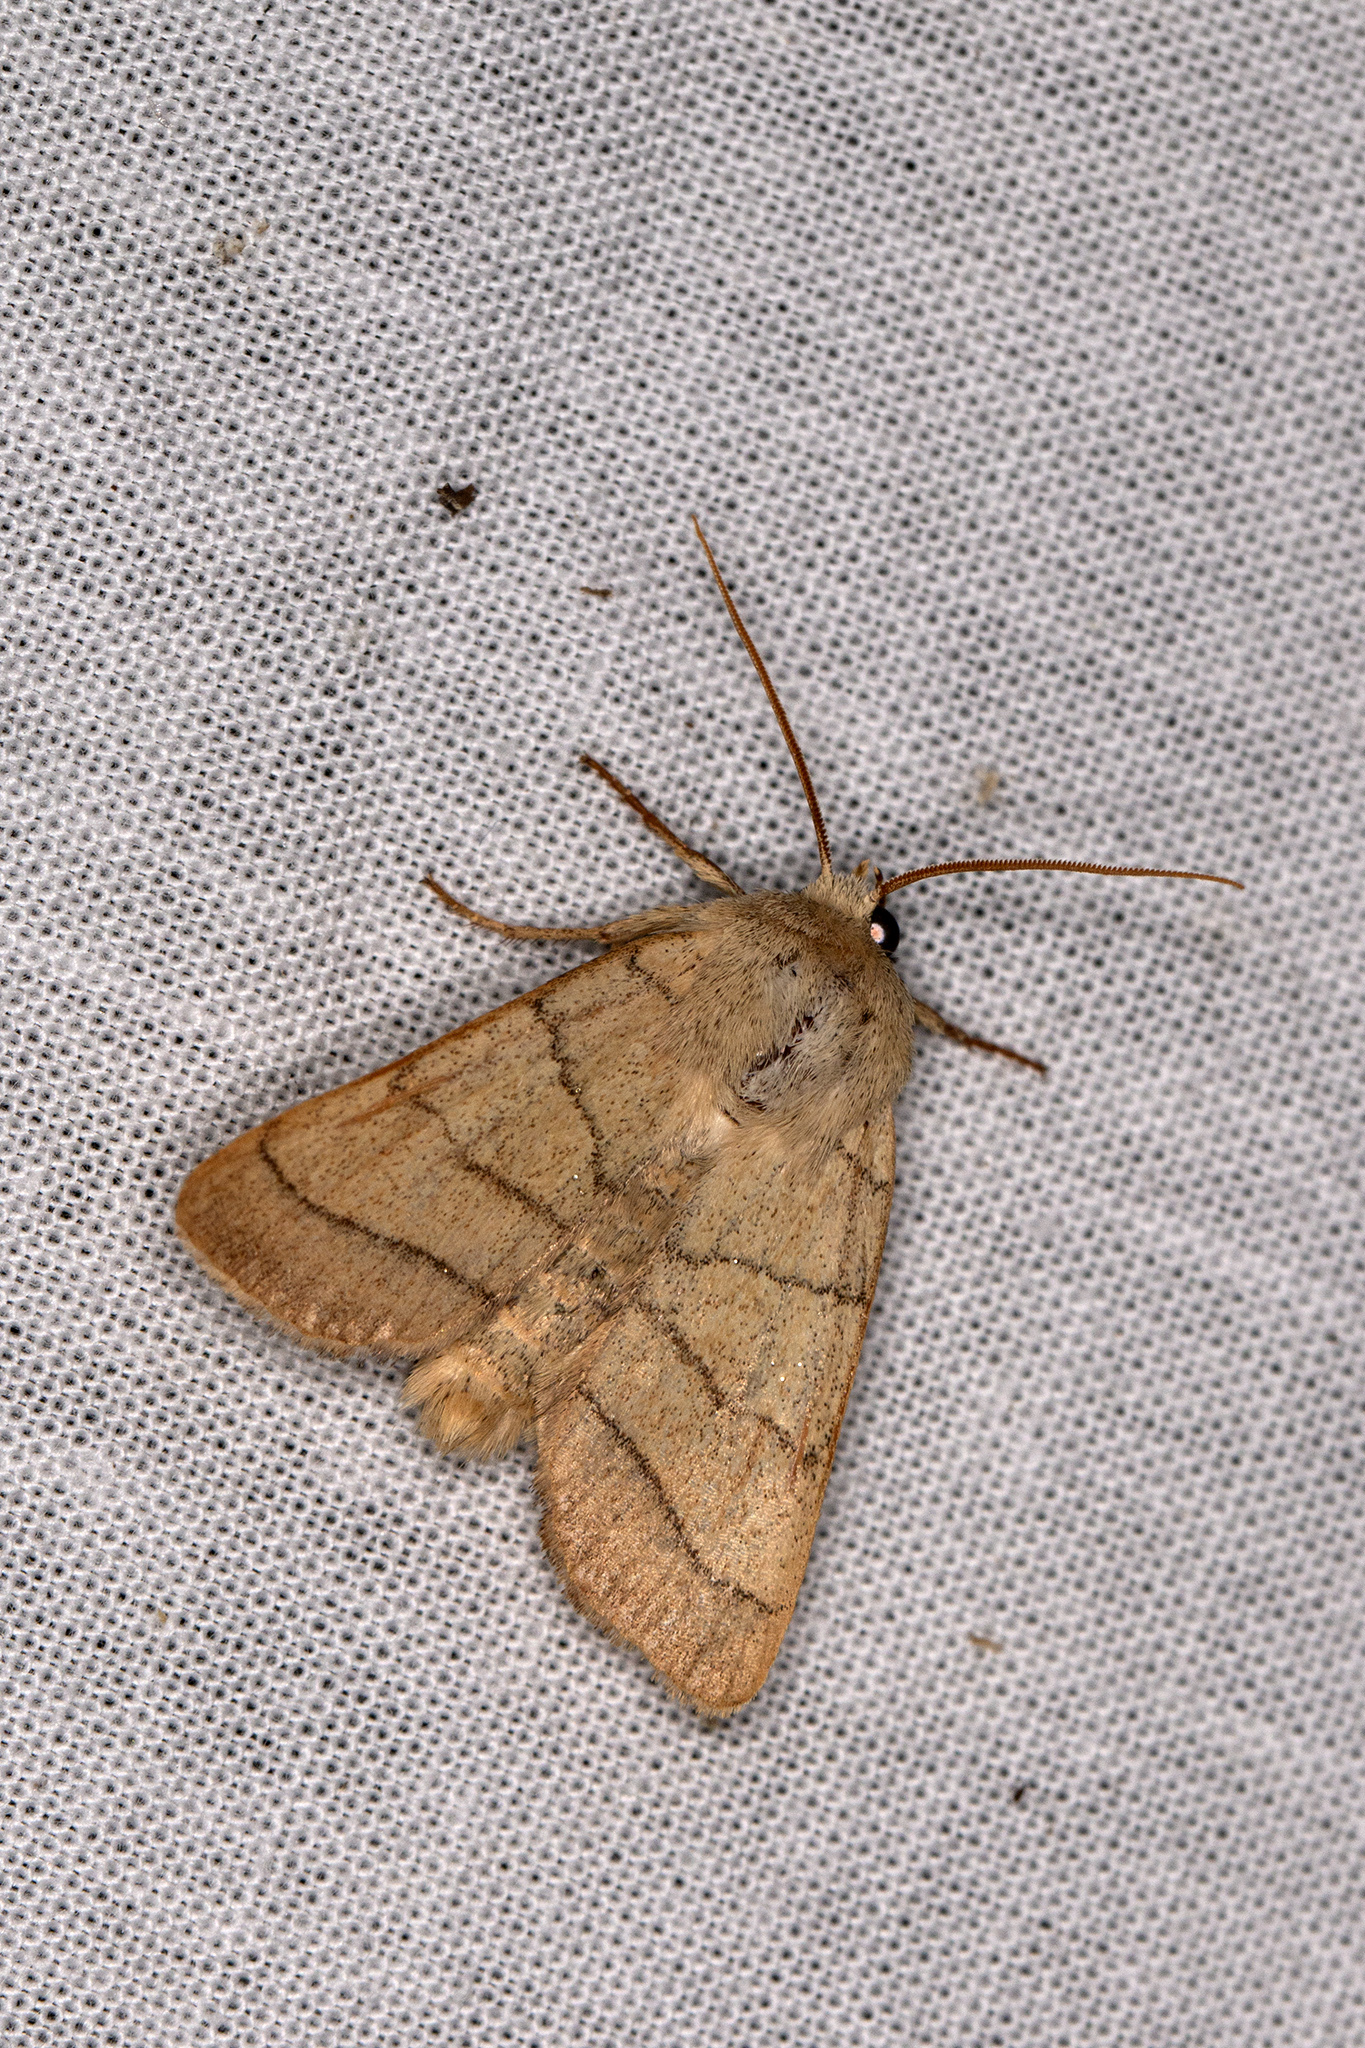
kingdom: Animalia
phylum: Arthropoda
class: Insecta
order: Lepidoptera
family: Noctuidae
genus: Charanyca
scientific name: Charanyca trigrammica
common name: Treble lines
